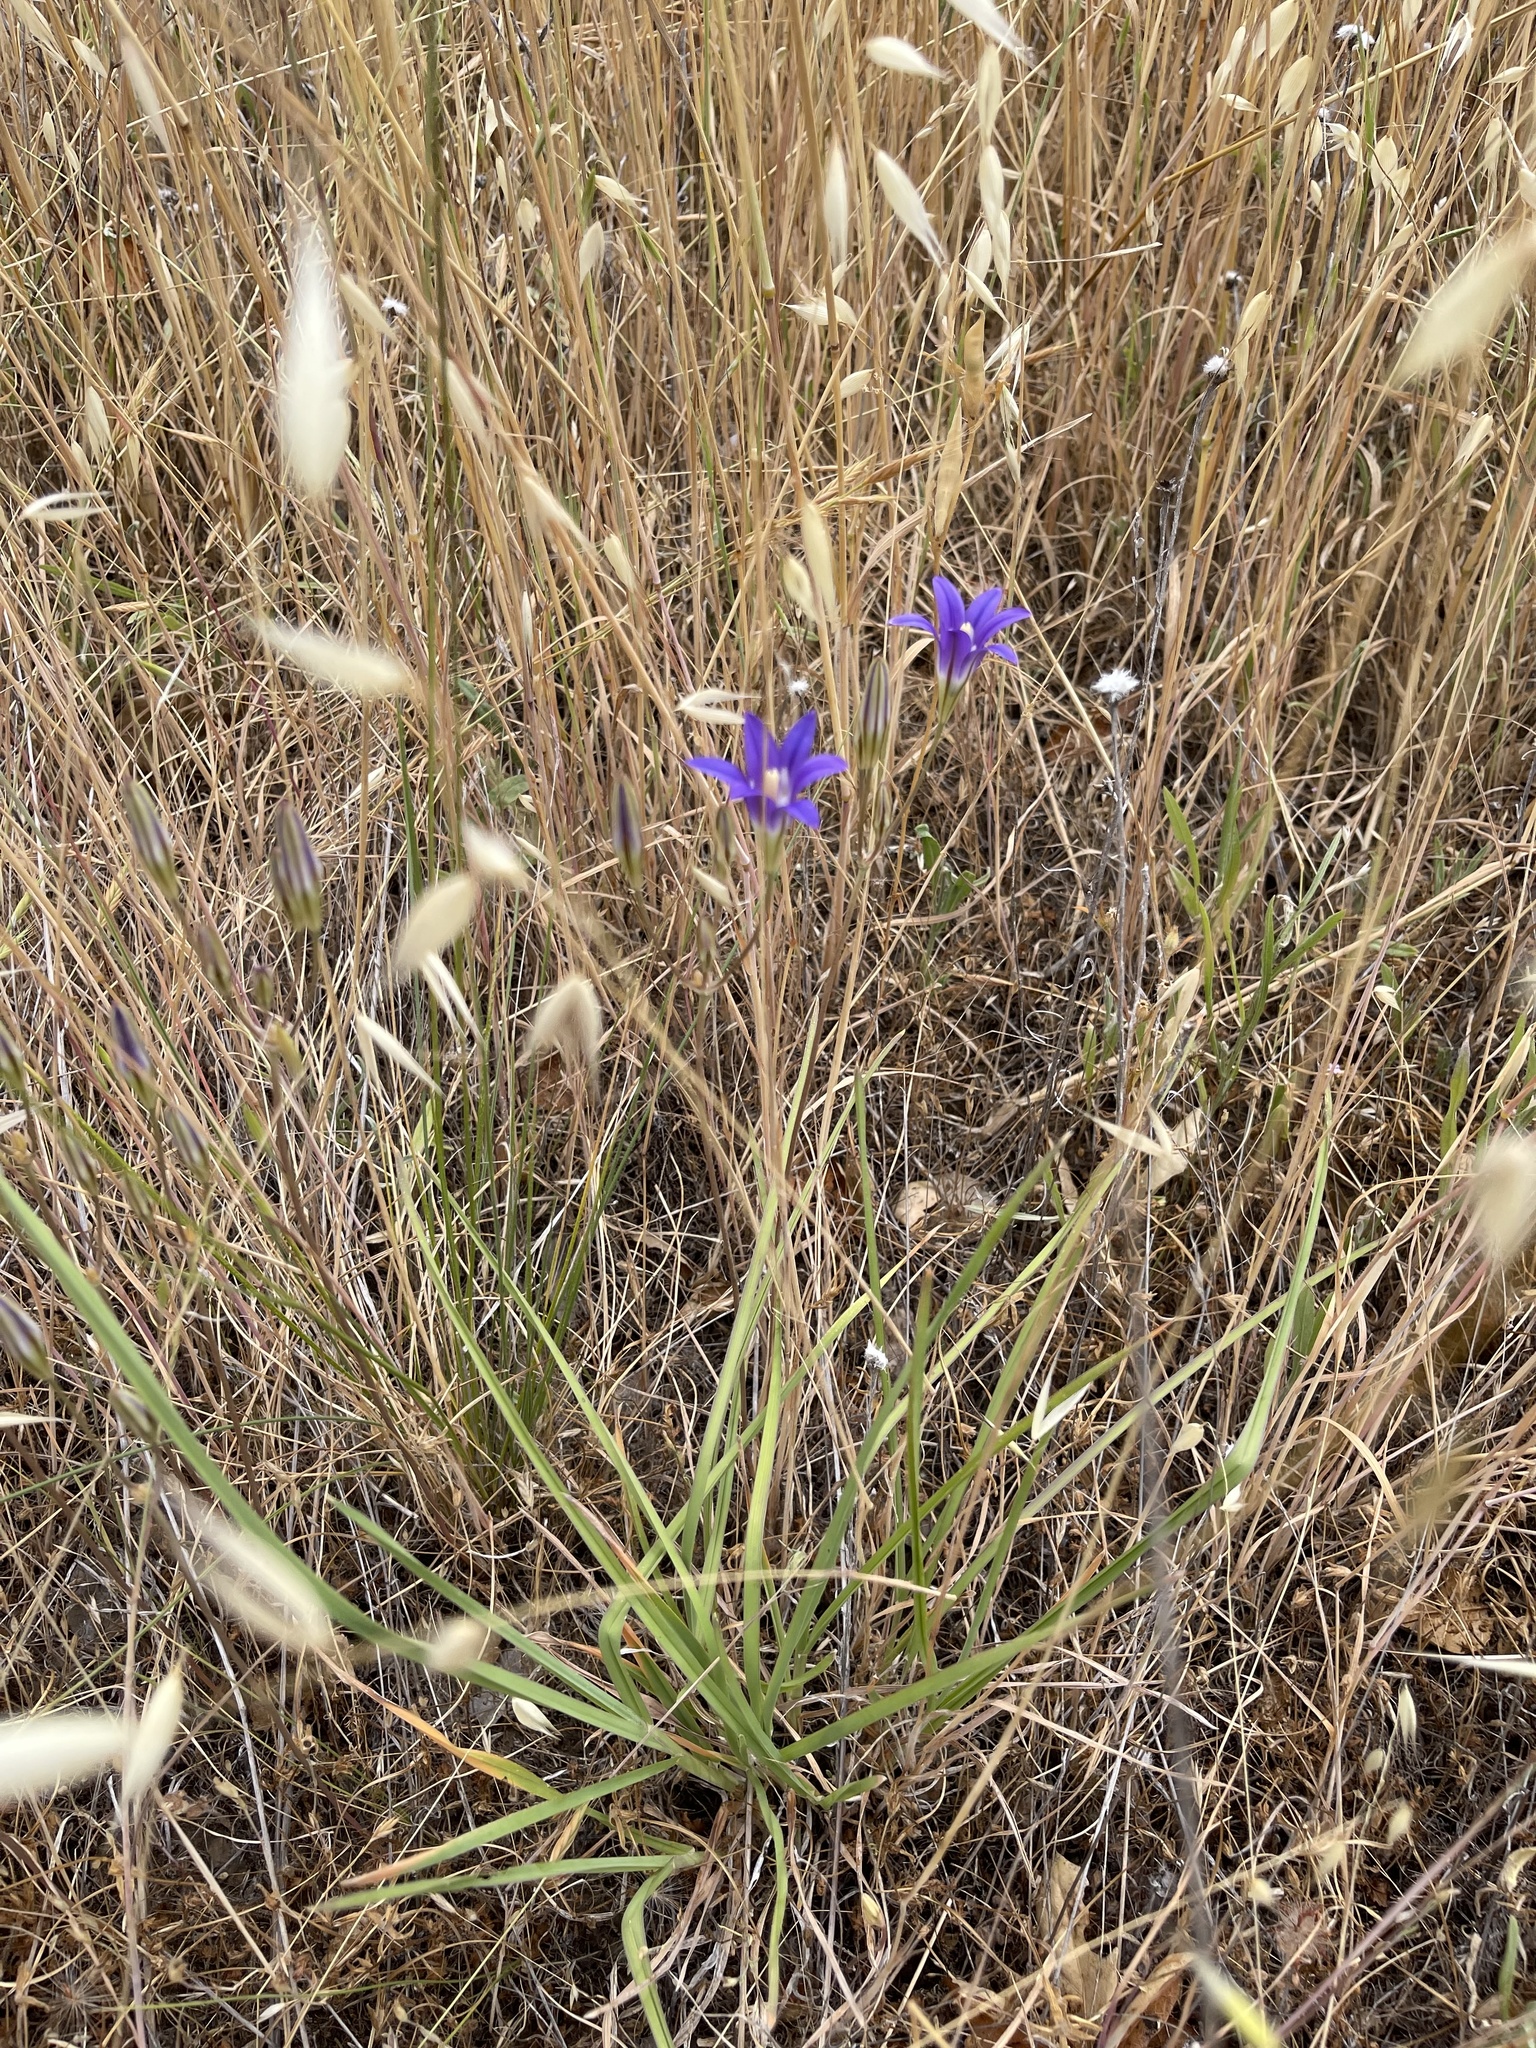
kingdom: Plantae
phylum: Tracheophyta
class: Liliopsida
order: Asparagales
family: Asparagaceae
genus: Brodiaea
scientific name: Brodiaea elegans
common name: Elegant cluster-lily
